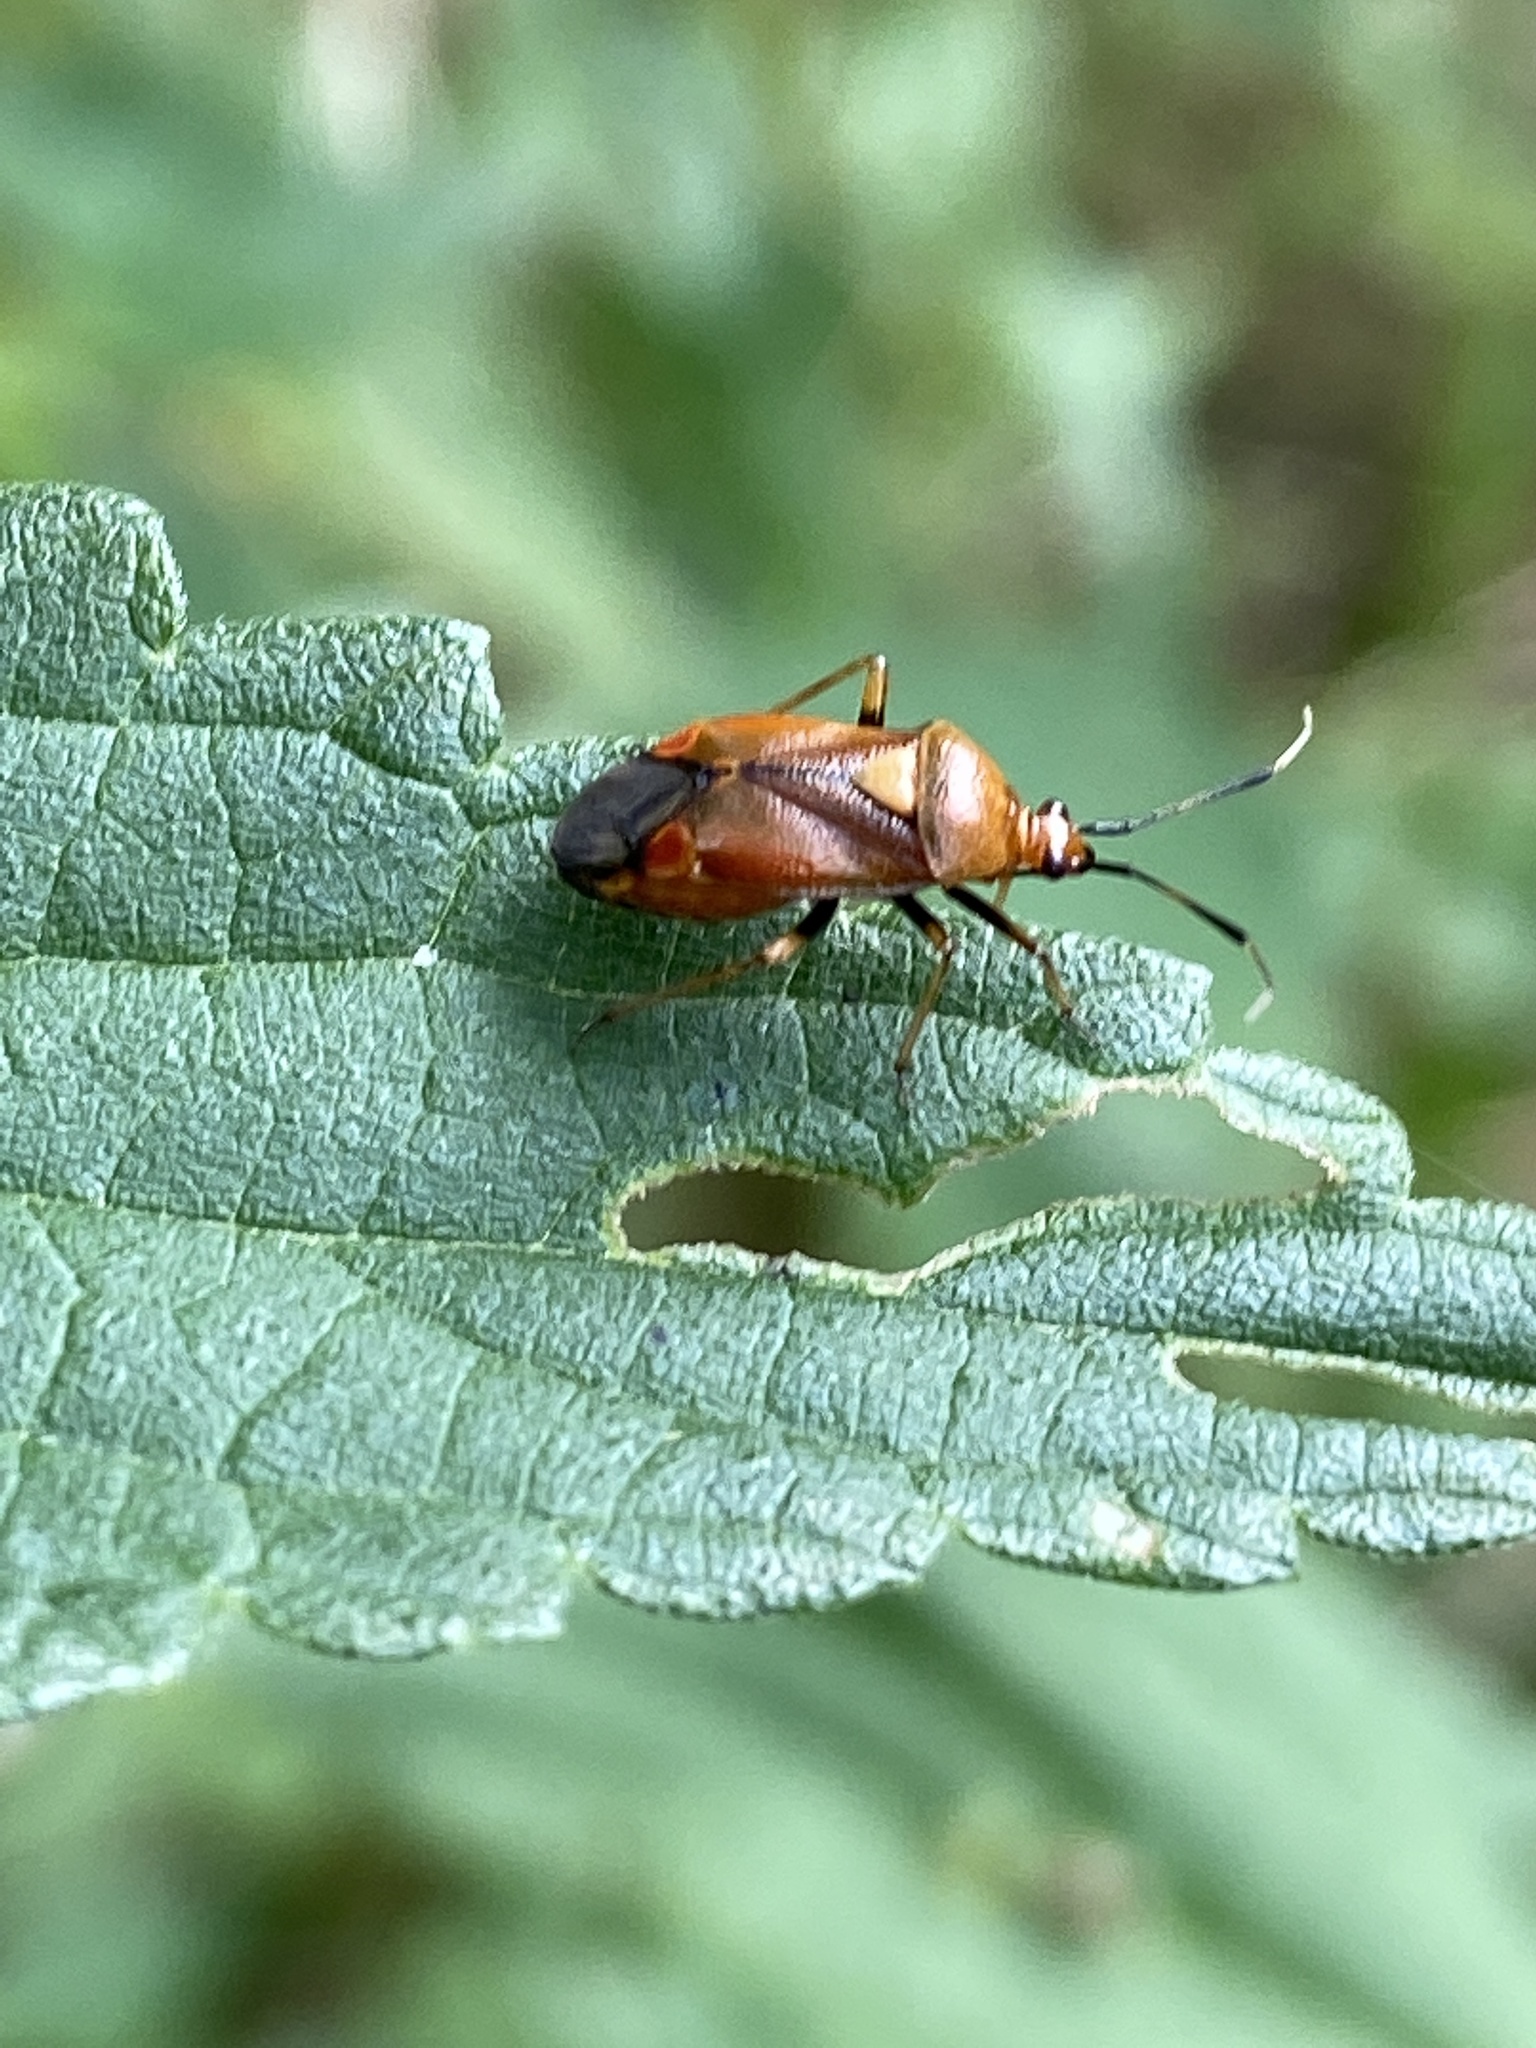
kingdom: Animalia
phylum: Arthropoda
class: Insecta
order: Hemiptera
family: Miridae
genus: Deraeocoris
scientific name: Deraeocoris ruber
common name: Plant bug
